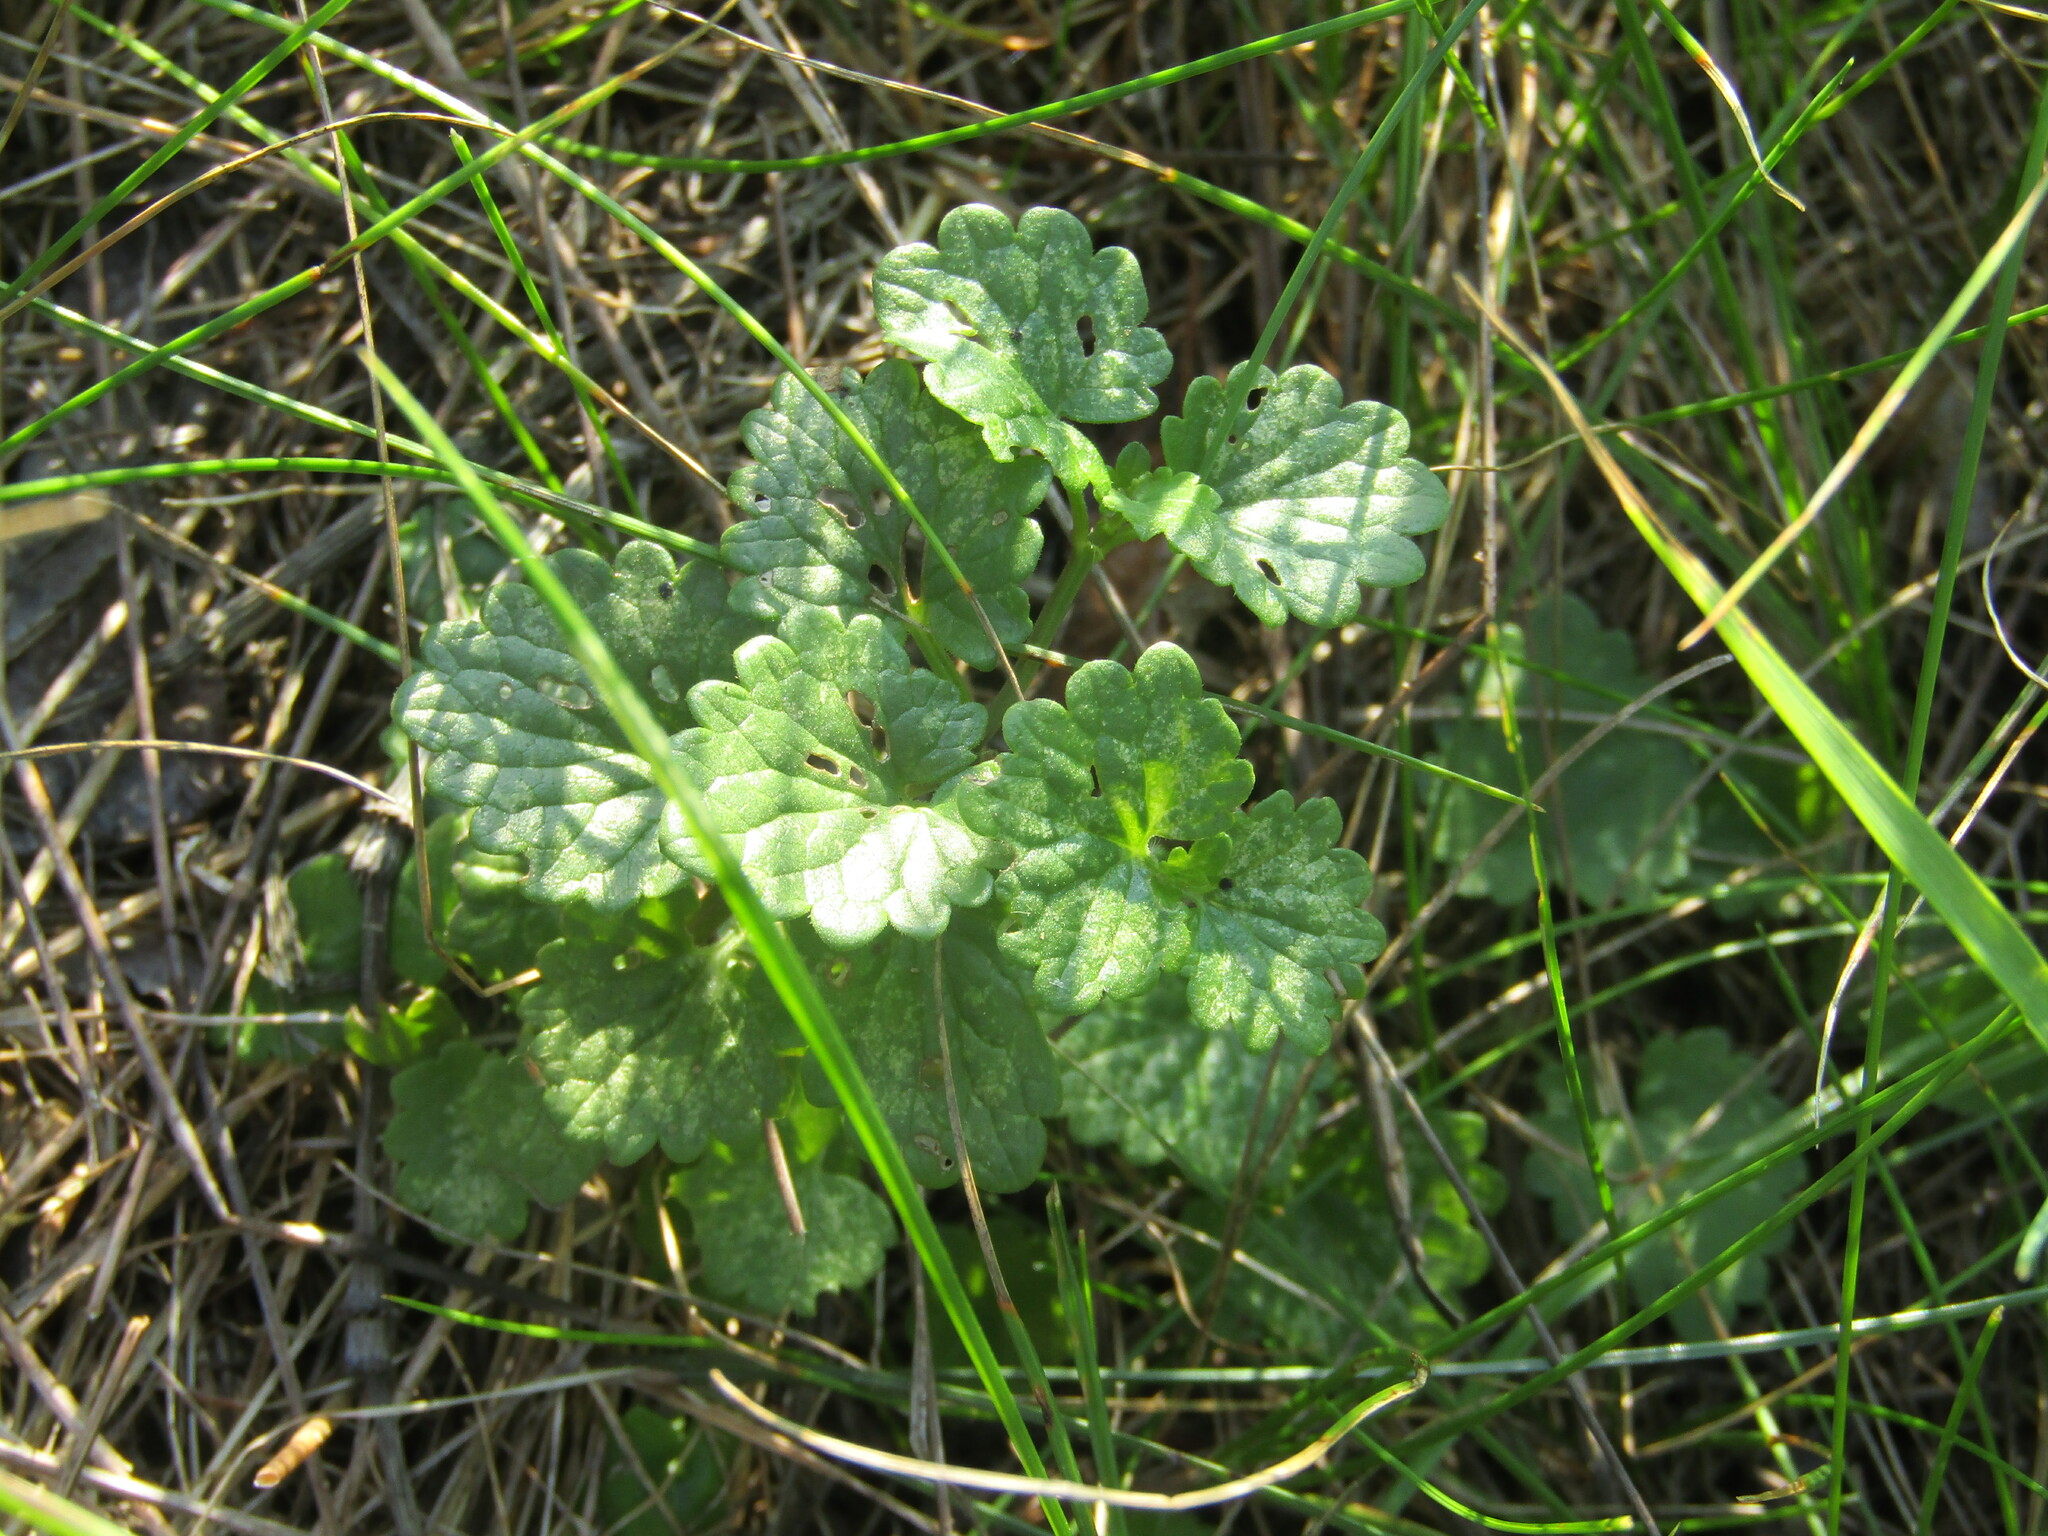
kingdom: Plantae
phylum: Tracheophyta
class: Magnoliopsida
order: Lamiales
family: Lamiaceae
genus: Glechoma
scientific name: Glechoma hederacea
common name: Ground ivy
